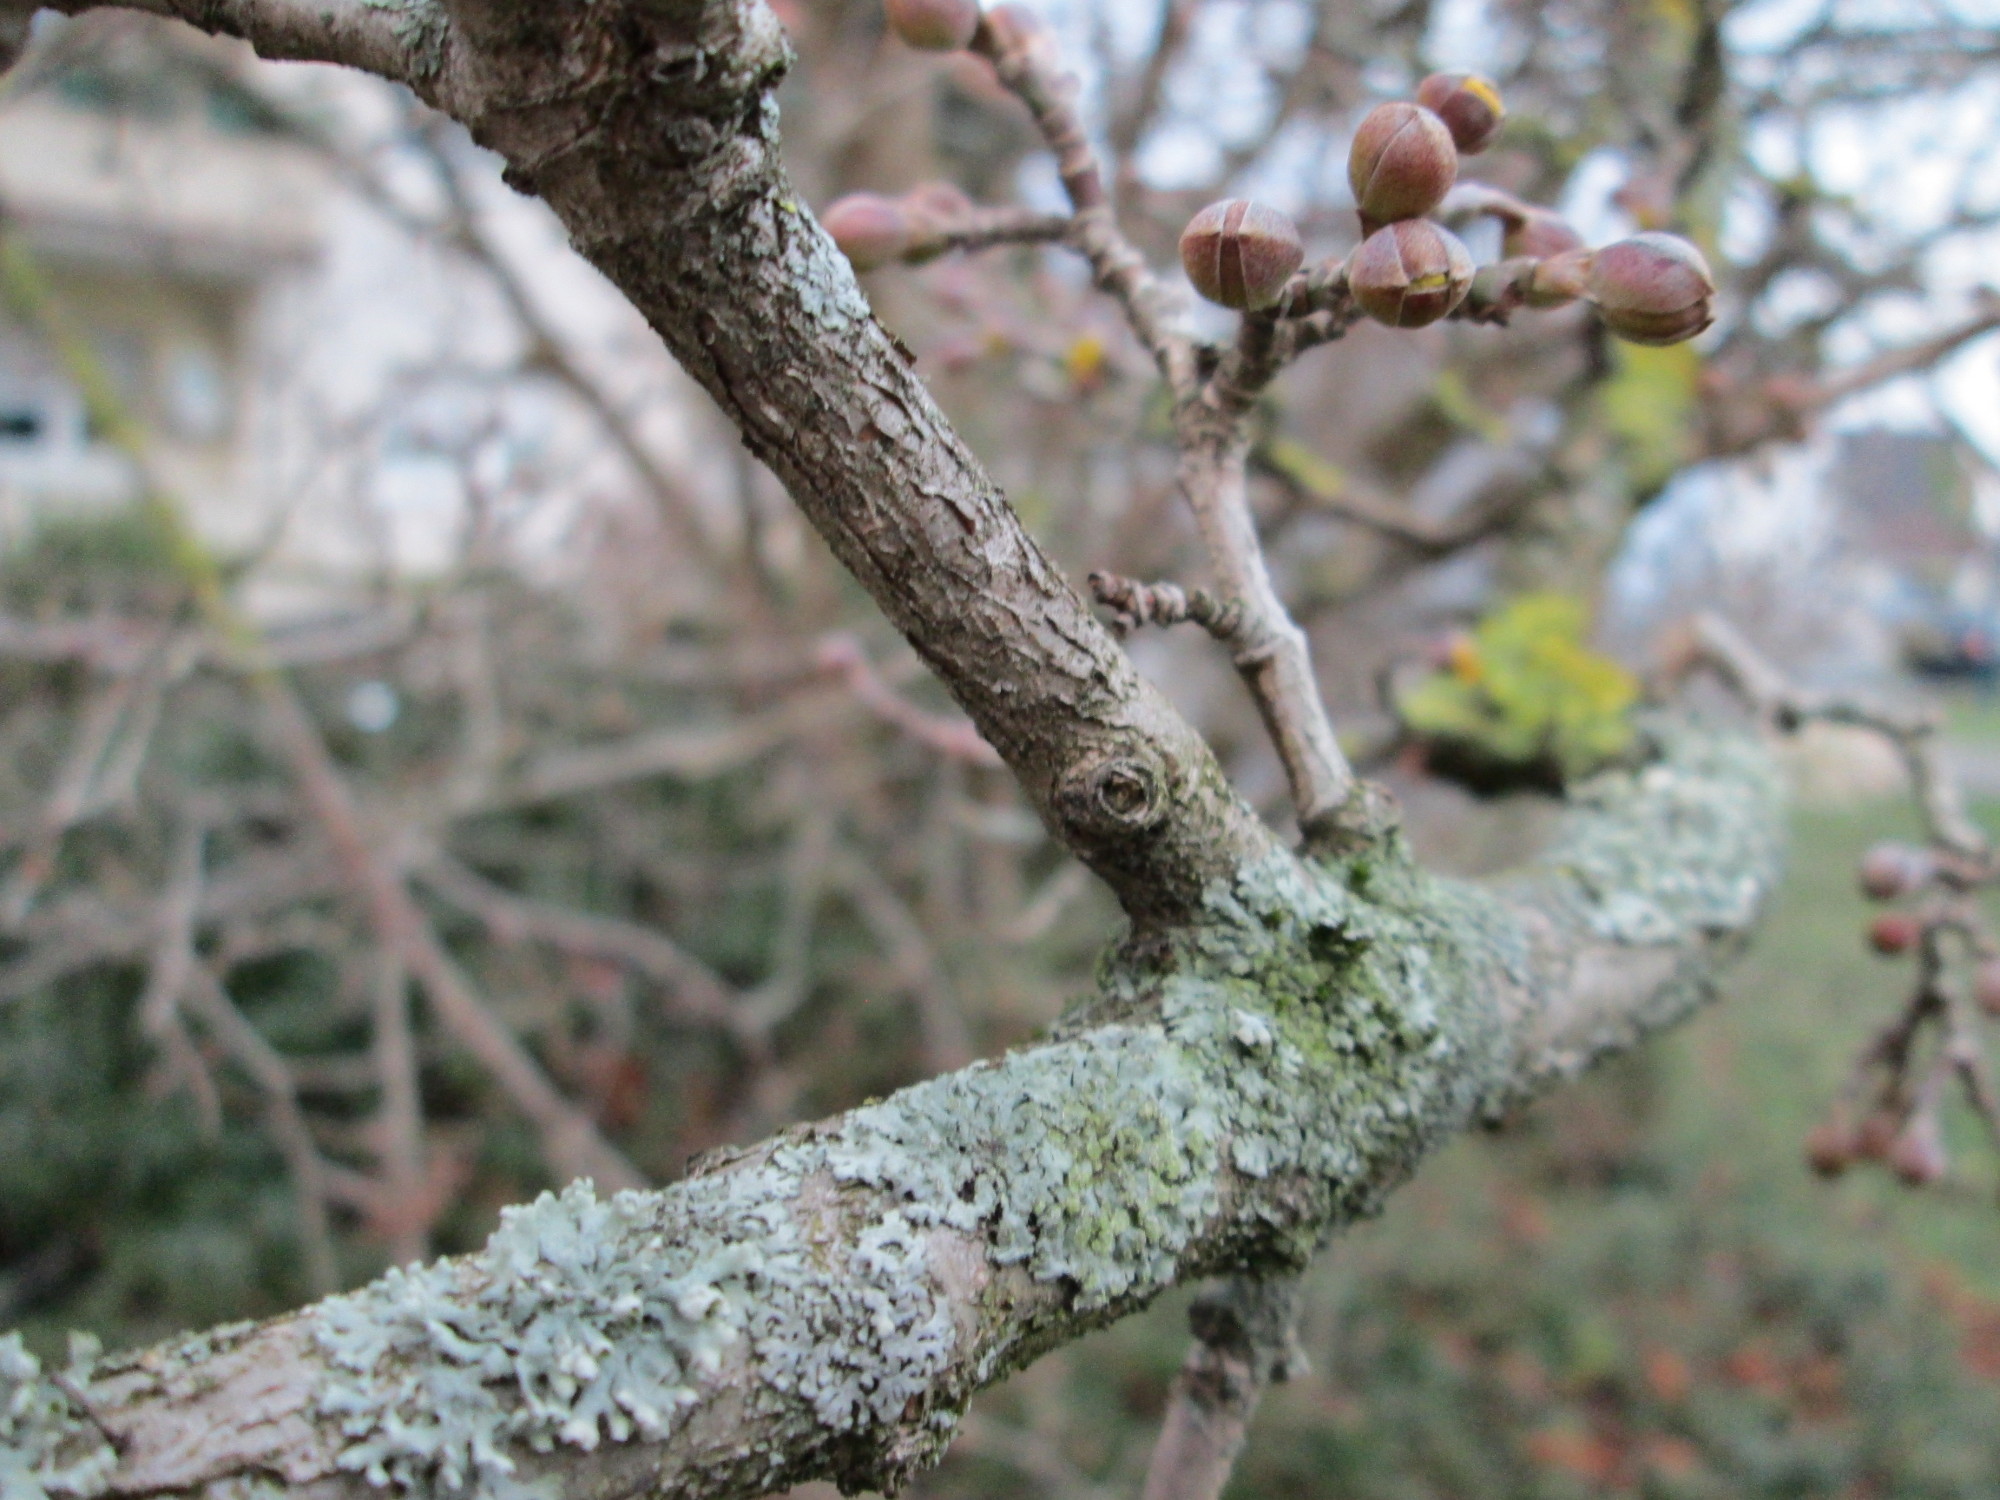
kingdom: Plantae
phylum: Tracheophyta
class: Magnoliopsida
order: Cornales
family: Cornaceae
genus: Cornus
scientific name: Cornus mas
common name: Cornelian-cherry
